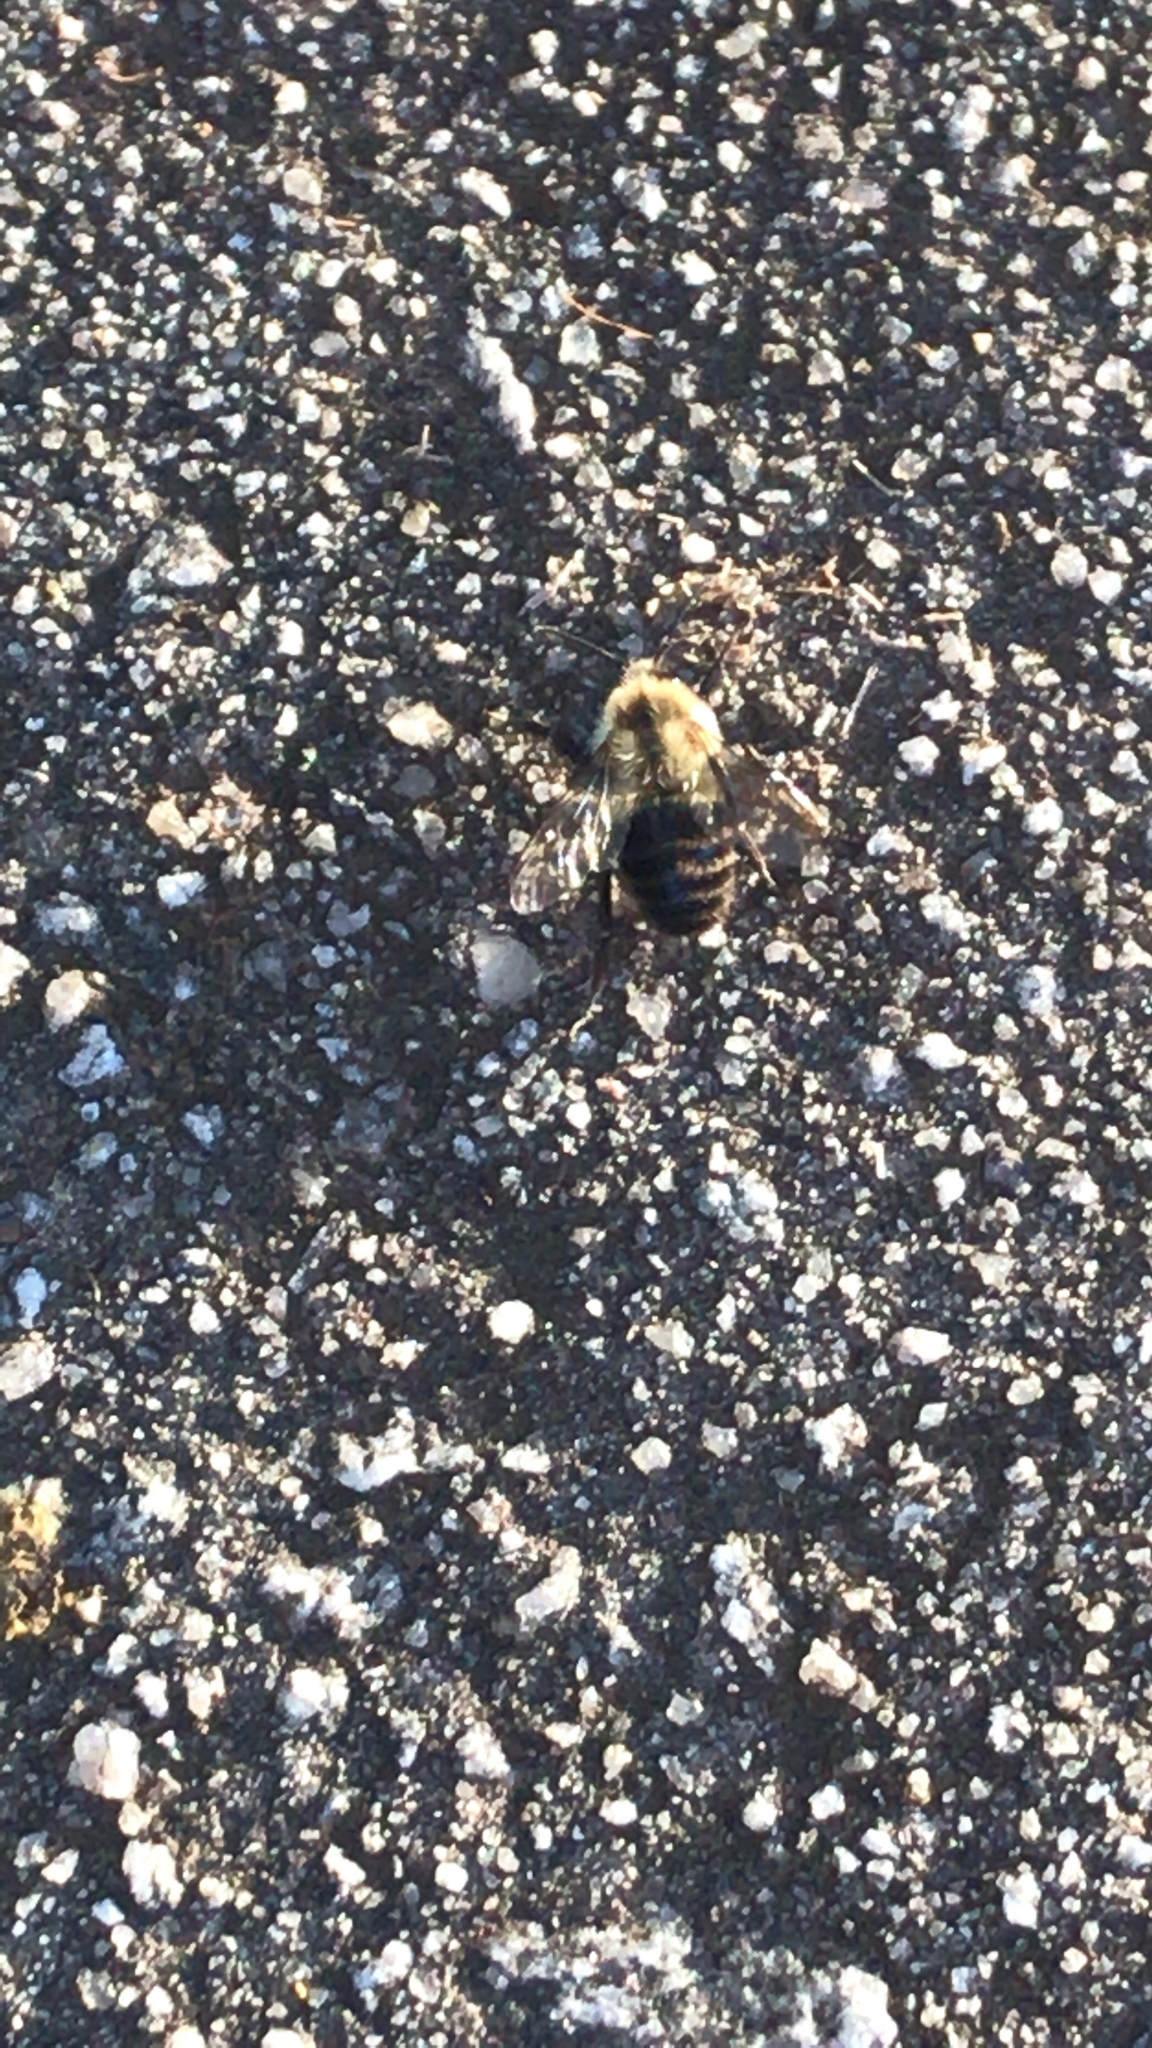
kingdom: Animalia
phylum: Arthropoda
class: Insecta
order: Hymenoptera
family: Apidae
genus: Bombus
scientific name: Bombus impatiens
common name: Common eastern bumble bee
